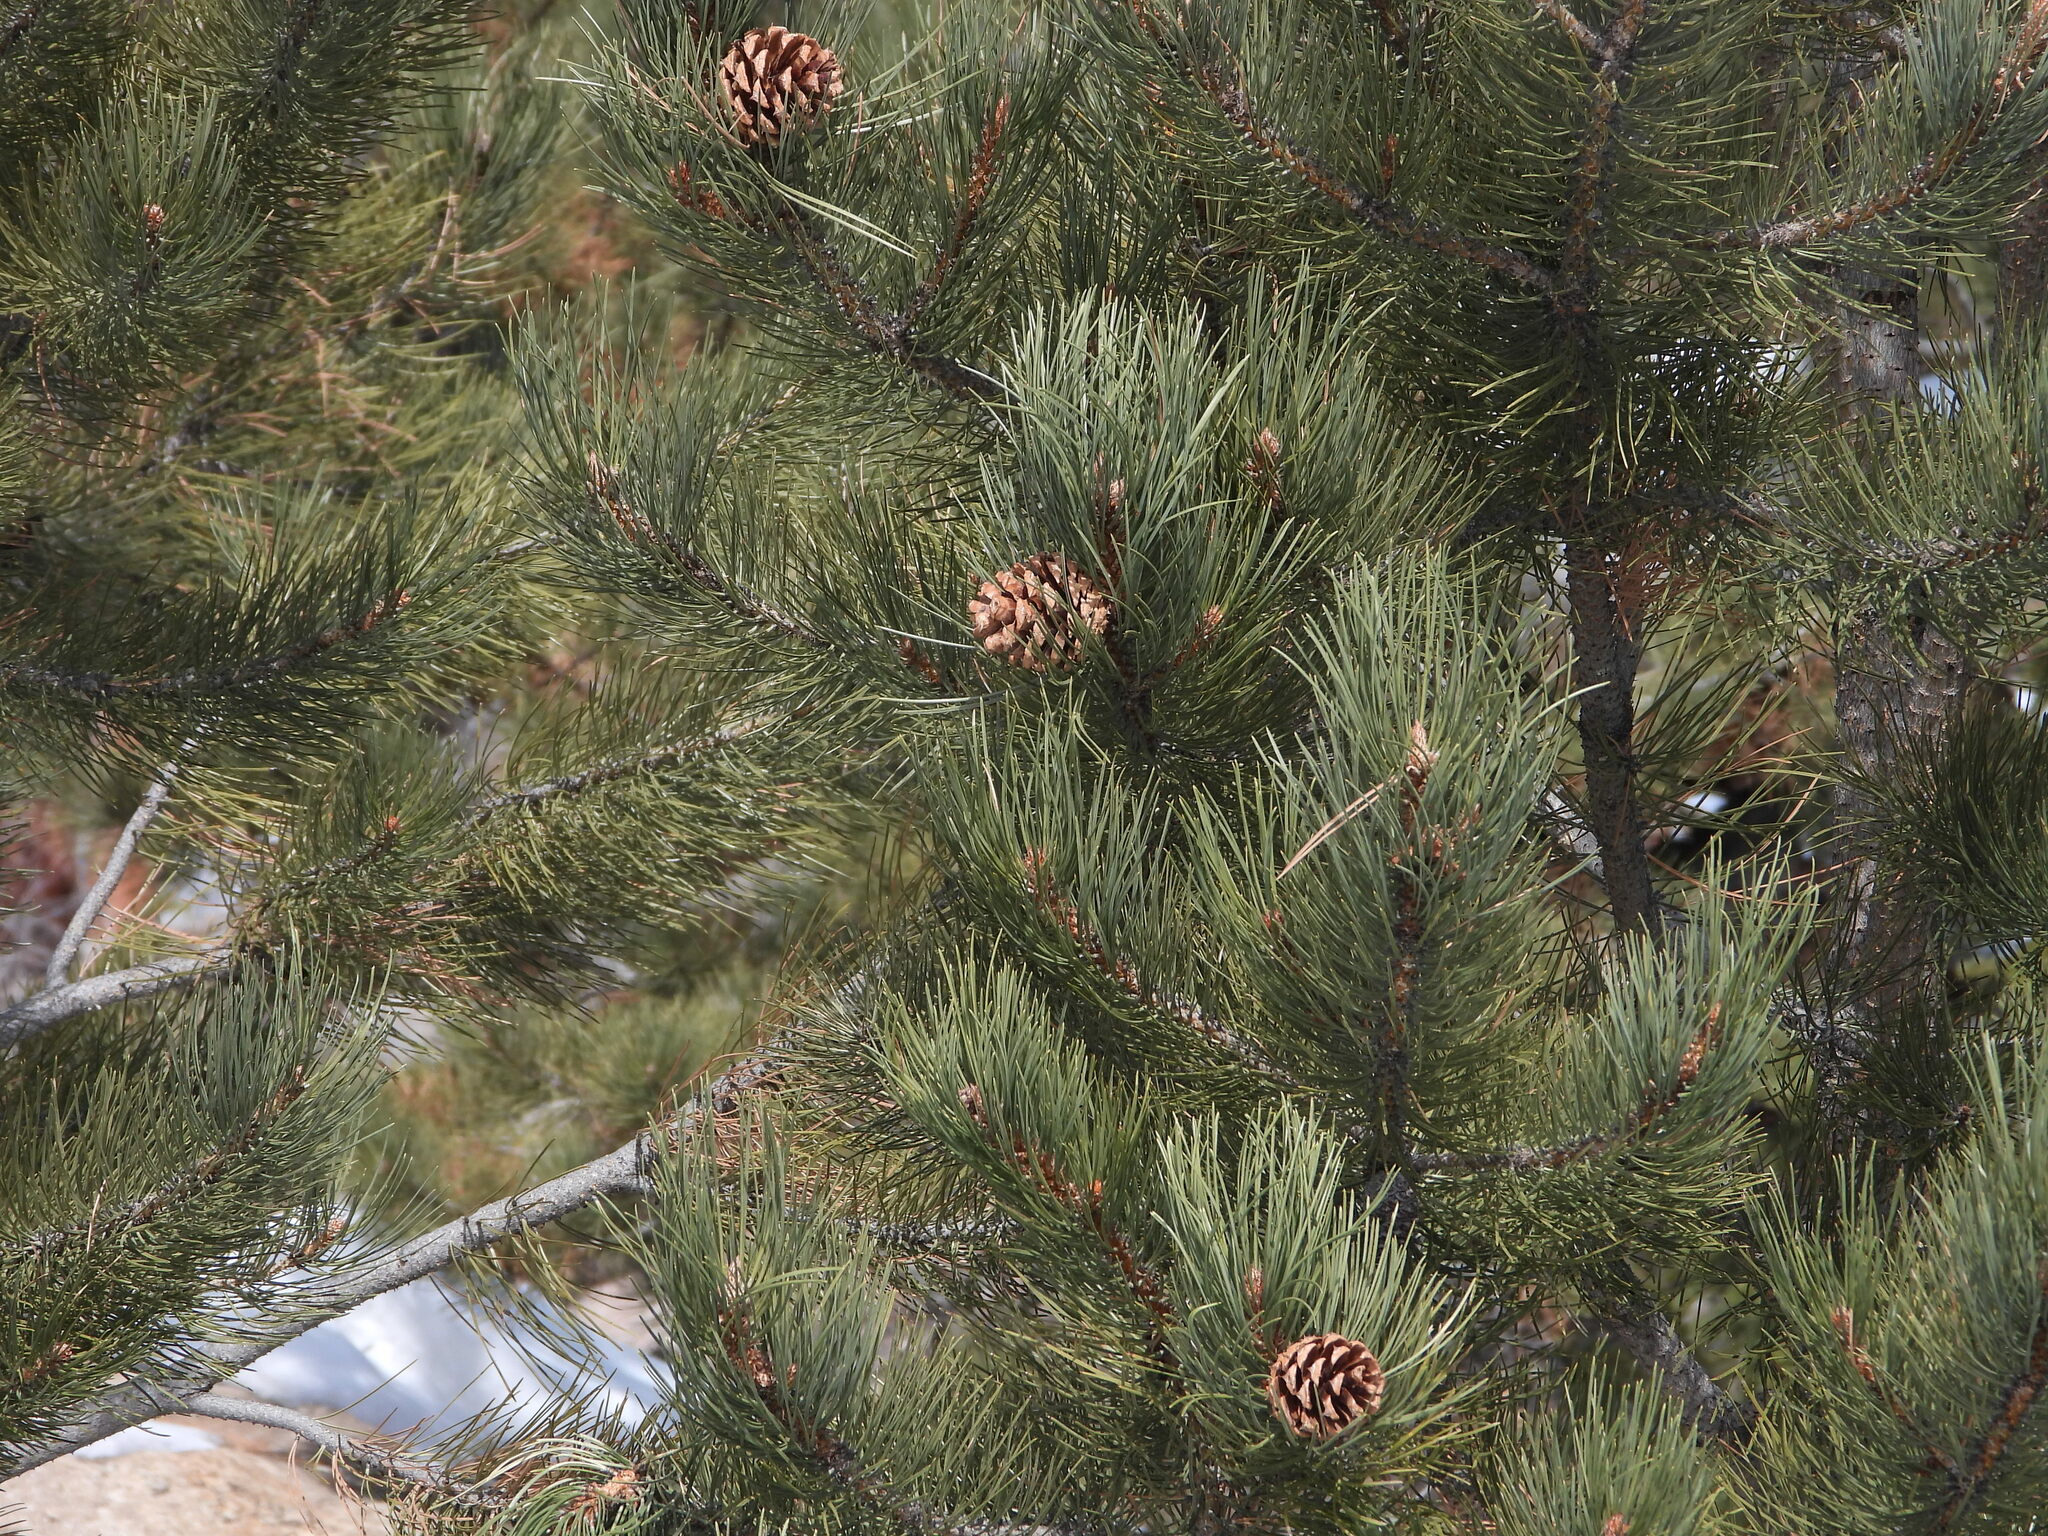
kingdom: Plantae
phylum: Tracheophyta
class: Pinopsida
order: Pinales
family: Pinaceae
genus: Pinus
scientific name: Pinus ponderosa
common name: Western yellow-pine
